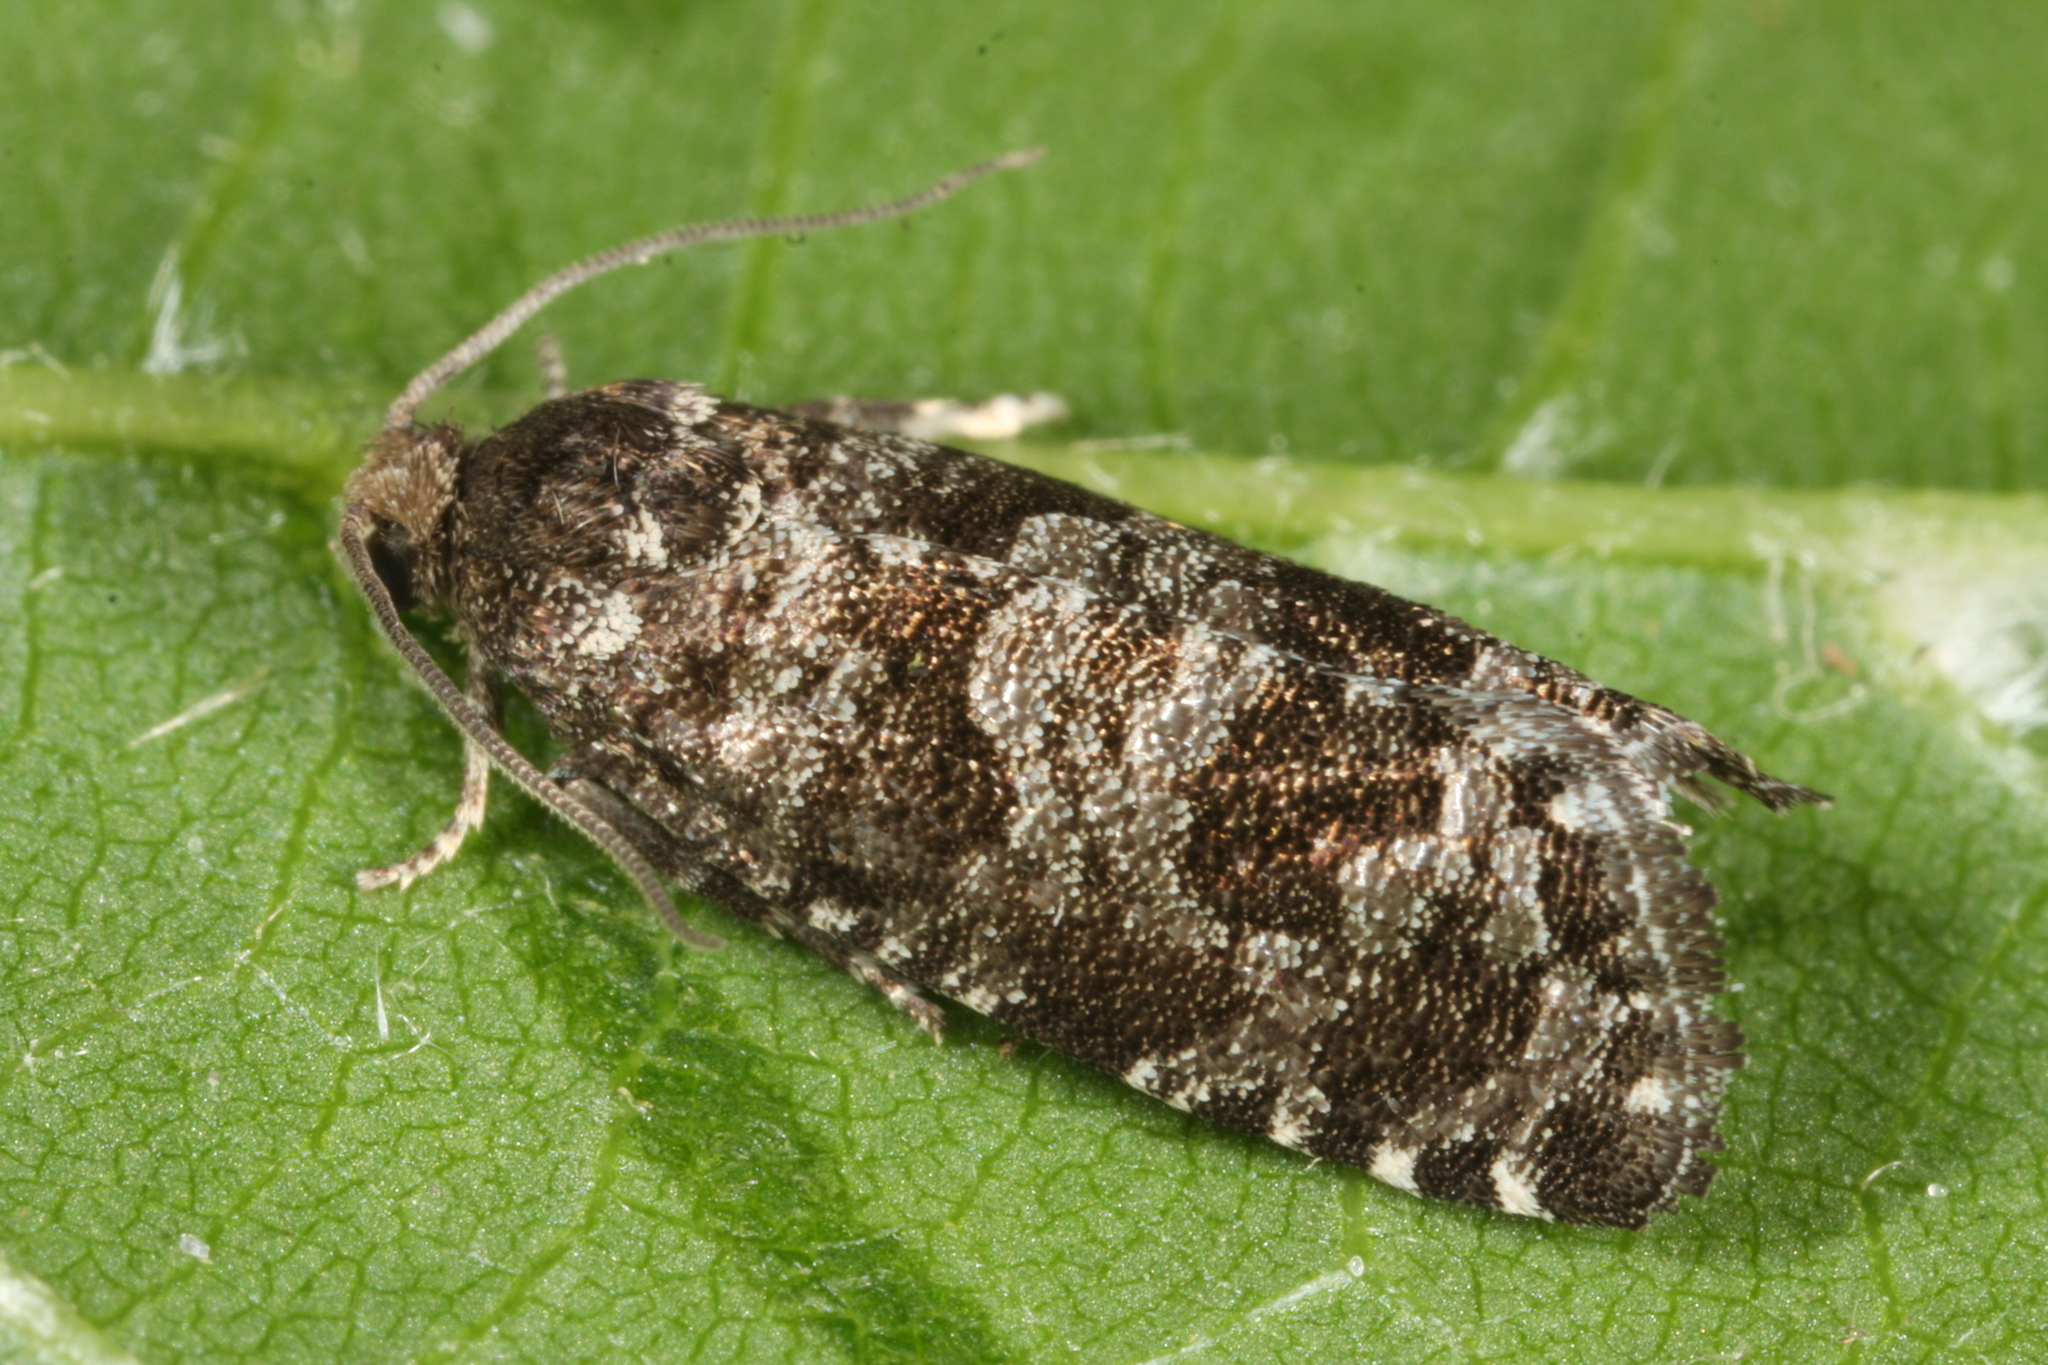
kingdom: Animalia
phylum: Arthropoda
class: Insecta
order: Lepidoptera
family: Tortricidae
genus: Retinia
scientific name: Retinia resinella
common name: Pine resin-gall moth
